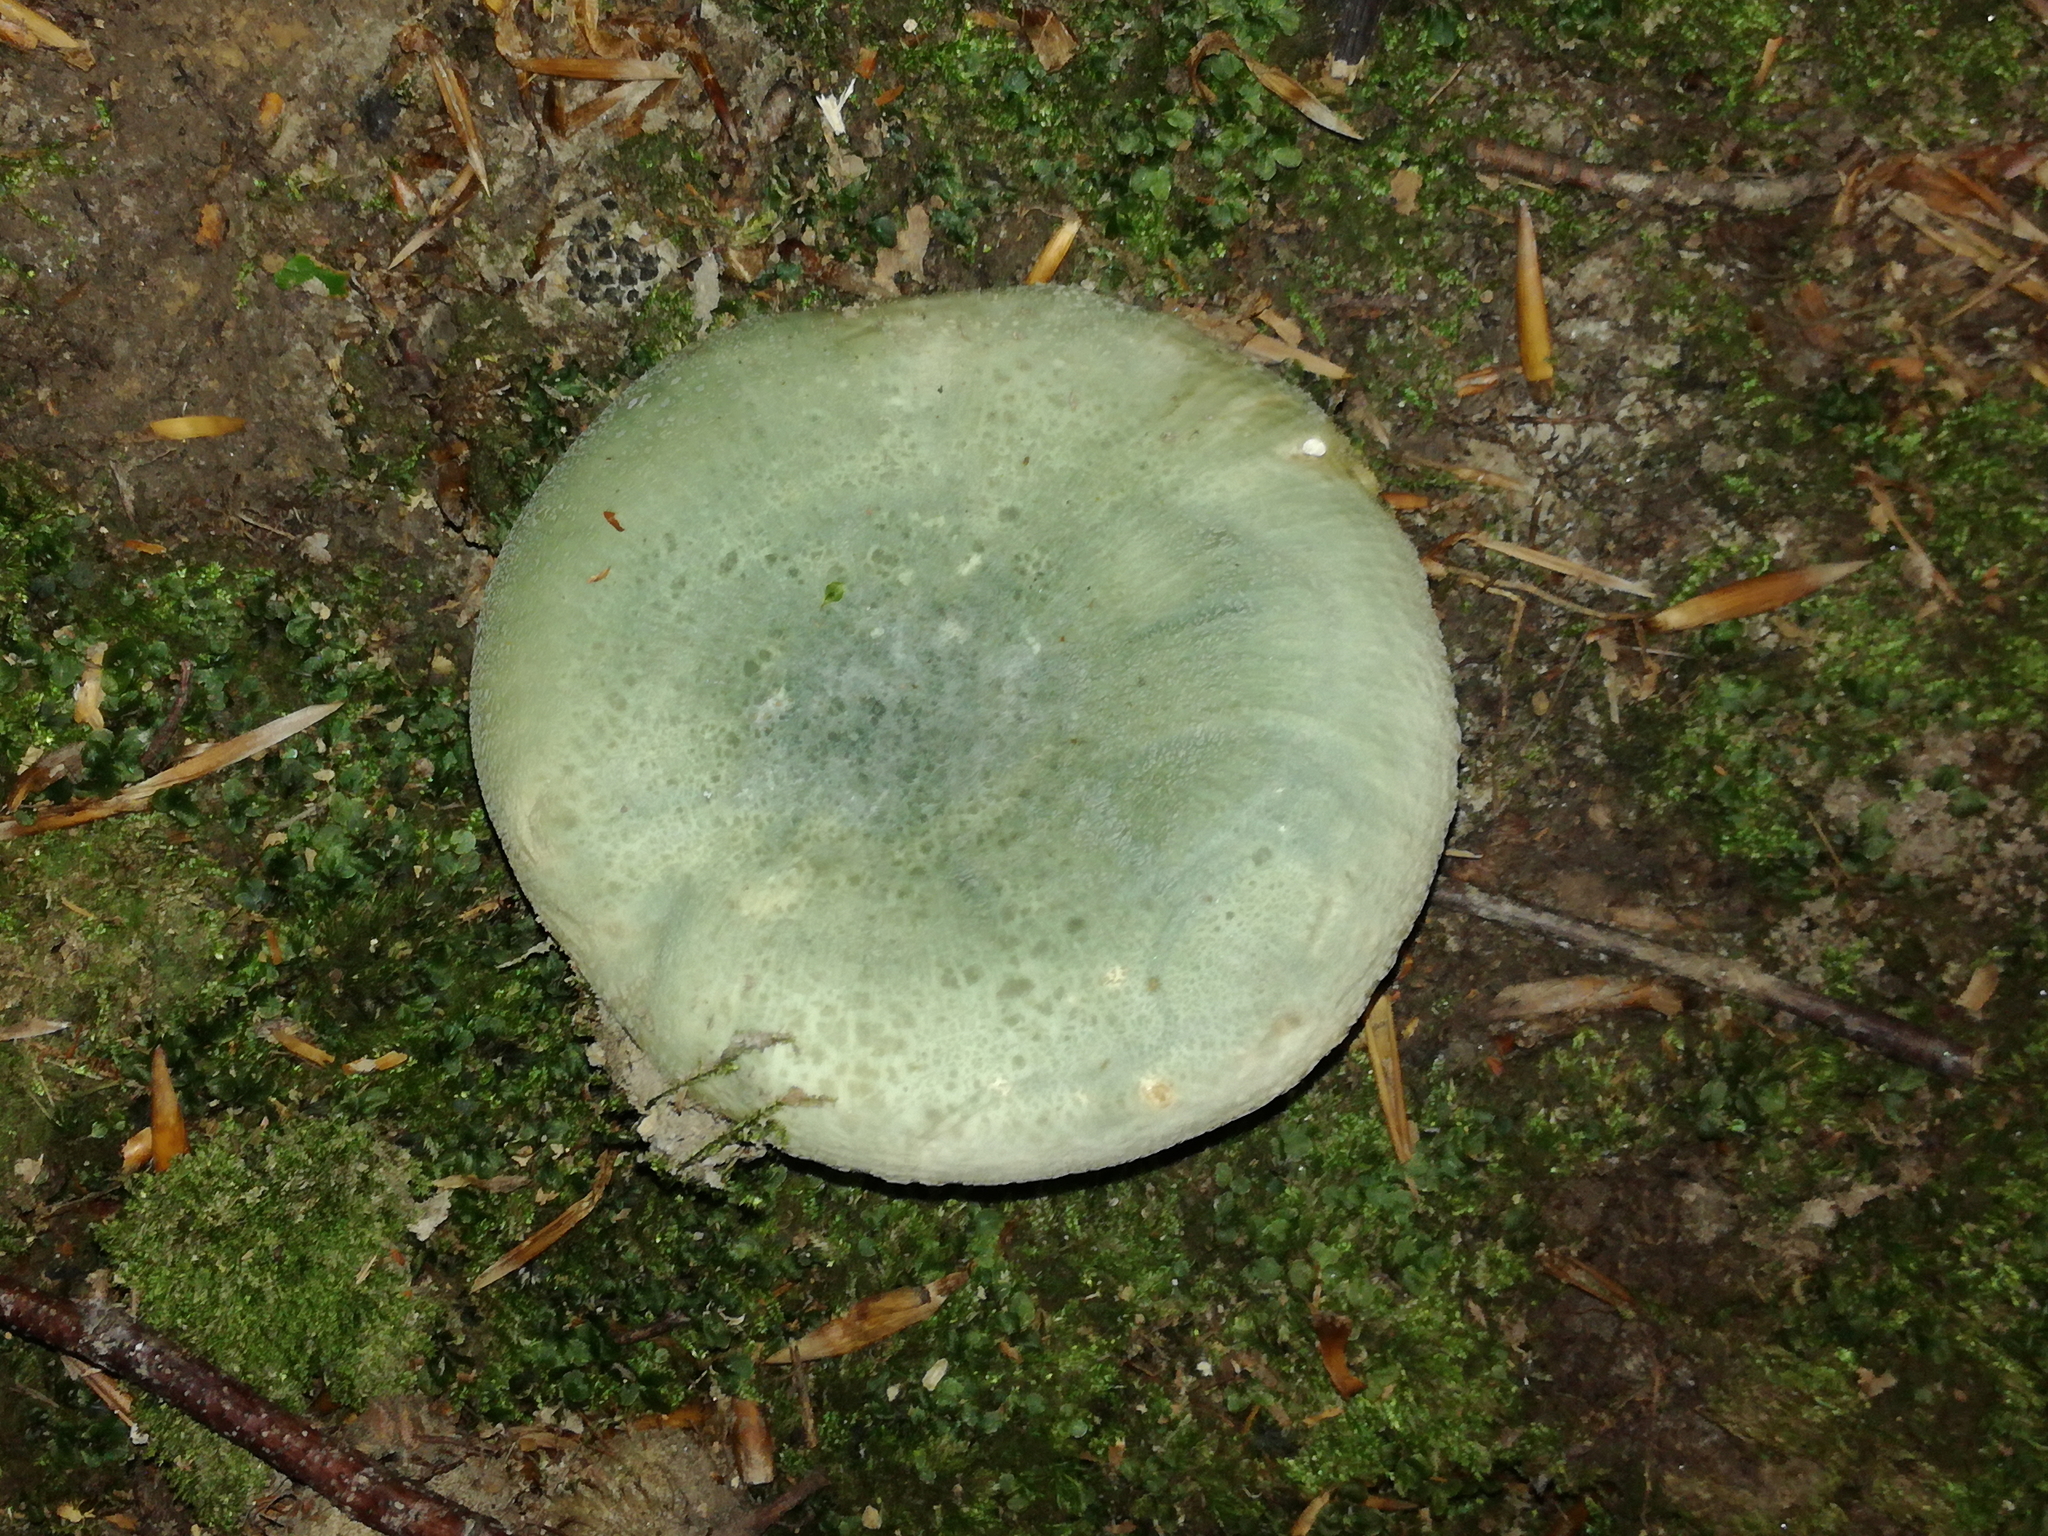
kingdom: Fungi
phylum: Basidiomycota
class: Agaricomycetes
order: Russulales
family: Russulaceae
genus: Russula
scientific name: Russula virescens
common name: Greencracked brittlegill
